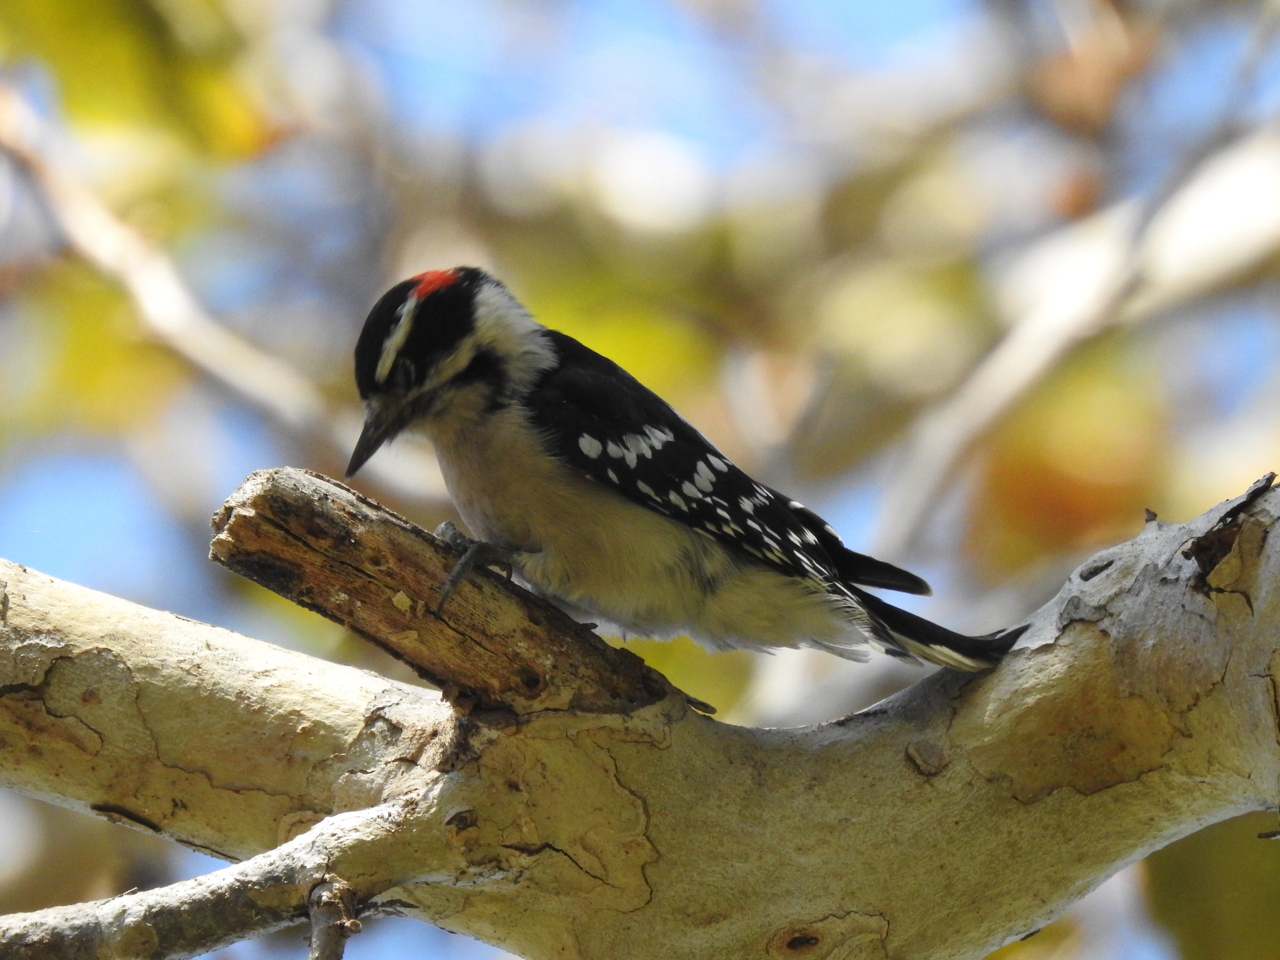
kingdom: Animalia
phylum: Chordata
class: Aves
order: Piciformes
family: Picidae
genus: Dryobates
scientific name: Dryobates pubescens
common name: Downy woodpecker
